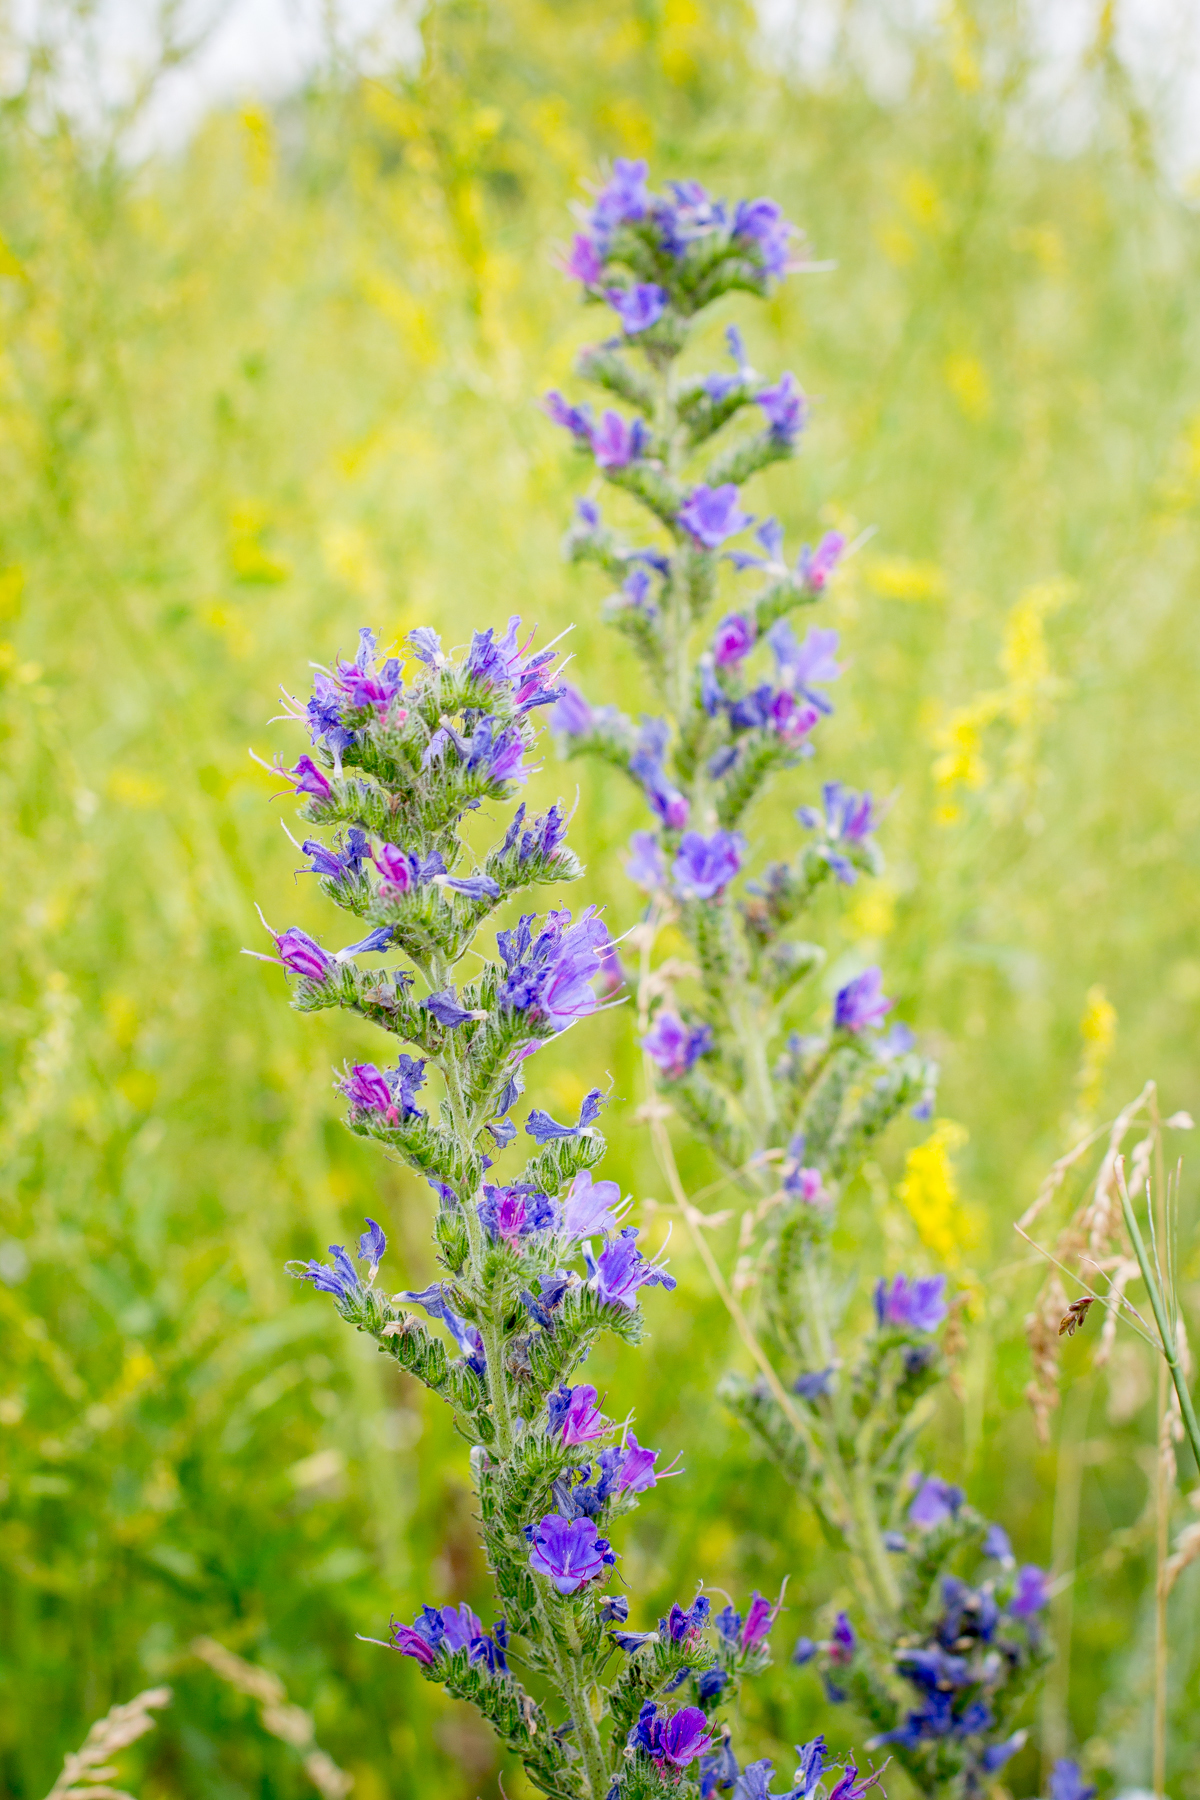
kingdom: Plantae
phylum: Tracheophyta
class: Magnoliopsida
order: Boraginales
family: Boraginaceae
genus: Echium
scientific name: Echium vulgare
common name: Common viper's bugloss
